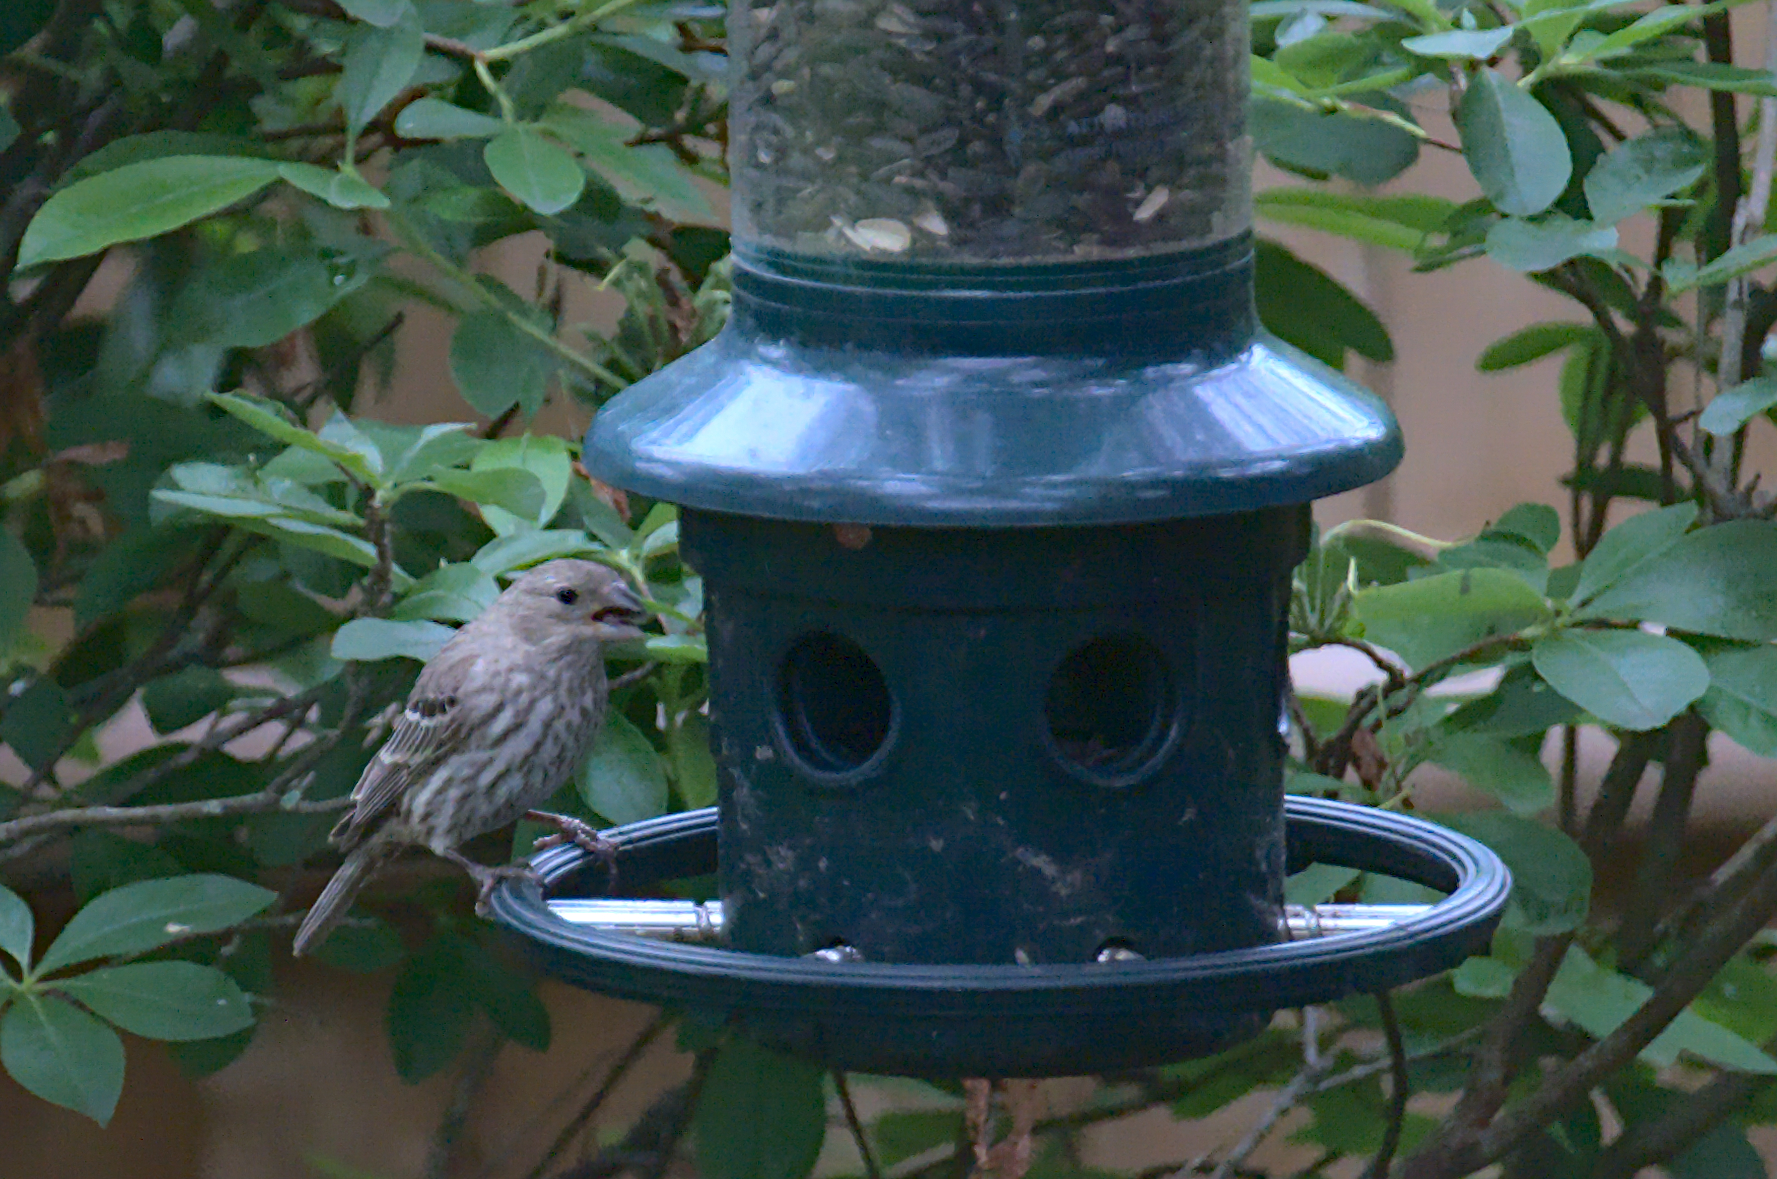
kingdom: Animalia
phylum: Chordata
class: Aves
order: Passeriformes
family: Fringillidae
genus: Haemorhous
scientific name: Haemorhous mexicanus
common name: House finch
